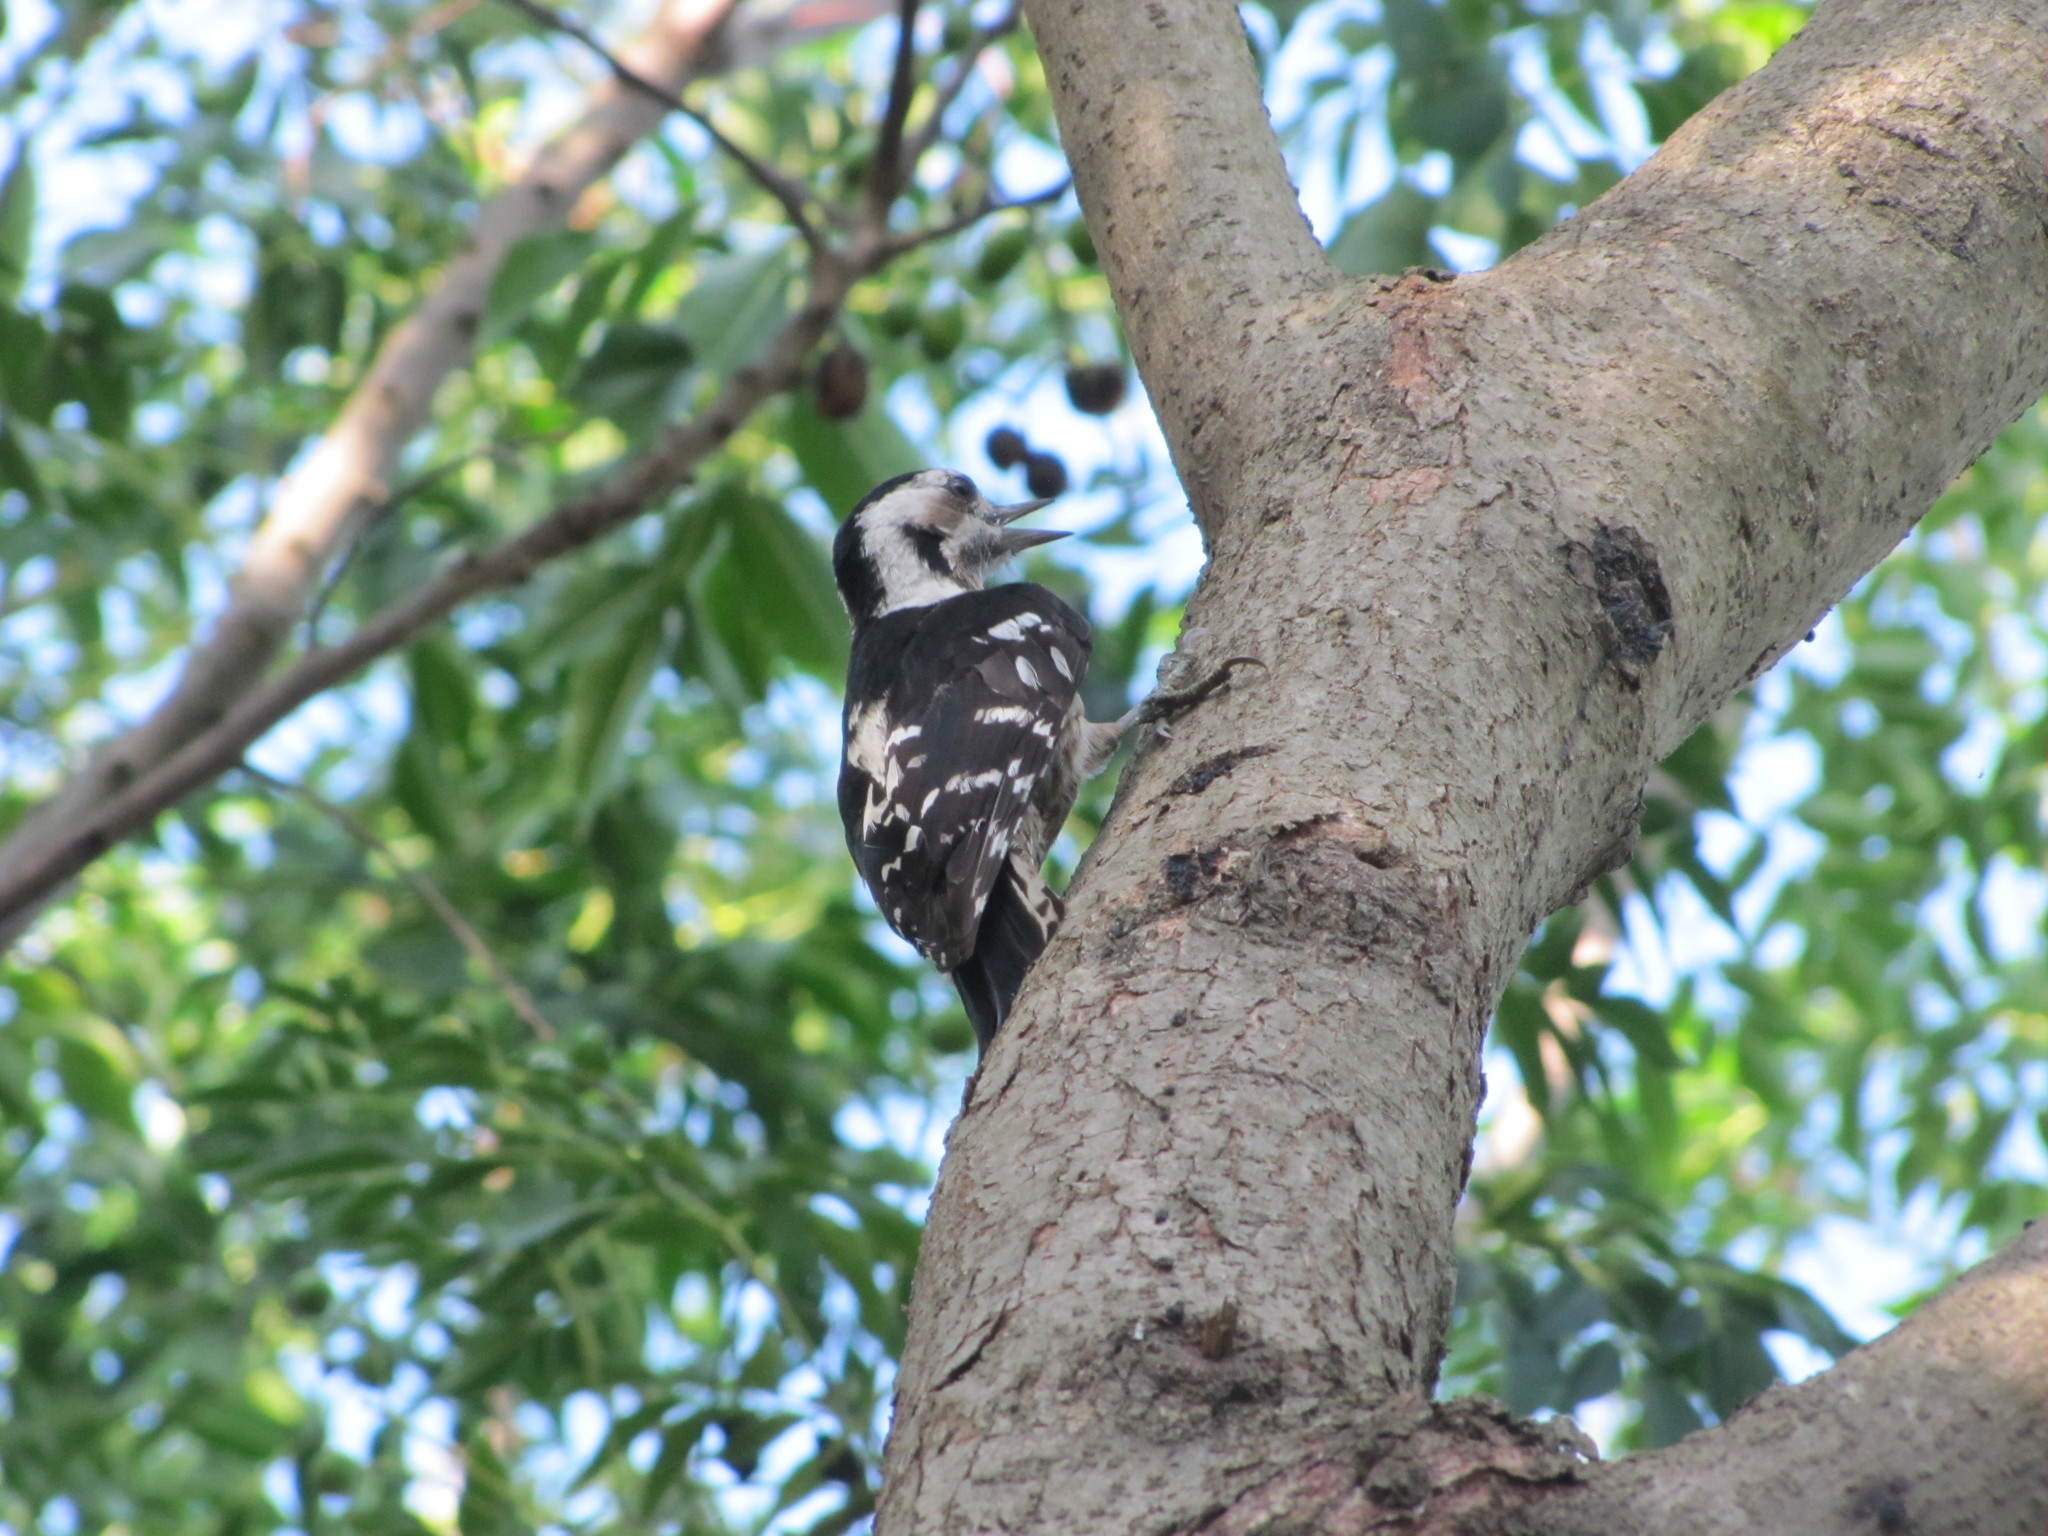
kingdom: Animalia
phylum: Chordata
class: Aves
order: Piciformes
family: Picidae
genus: Yungipicus
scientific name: Yungipicus canicapillus
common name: Grey-capped pygmy woodpecker
